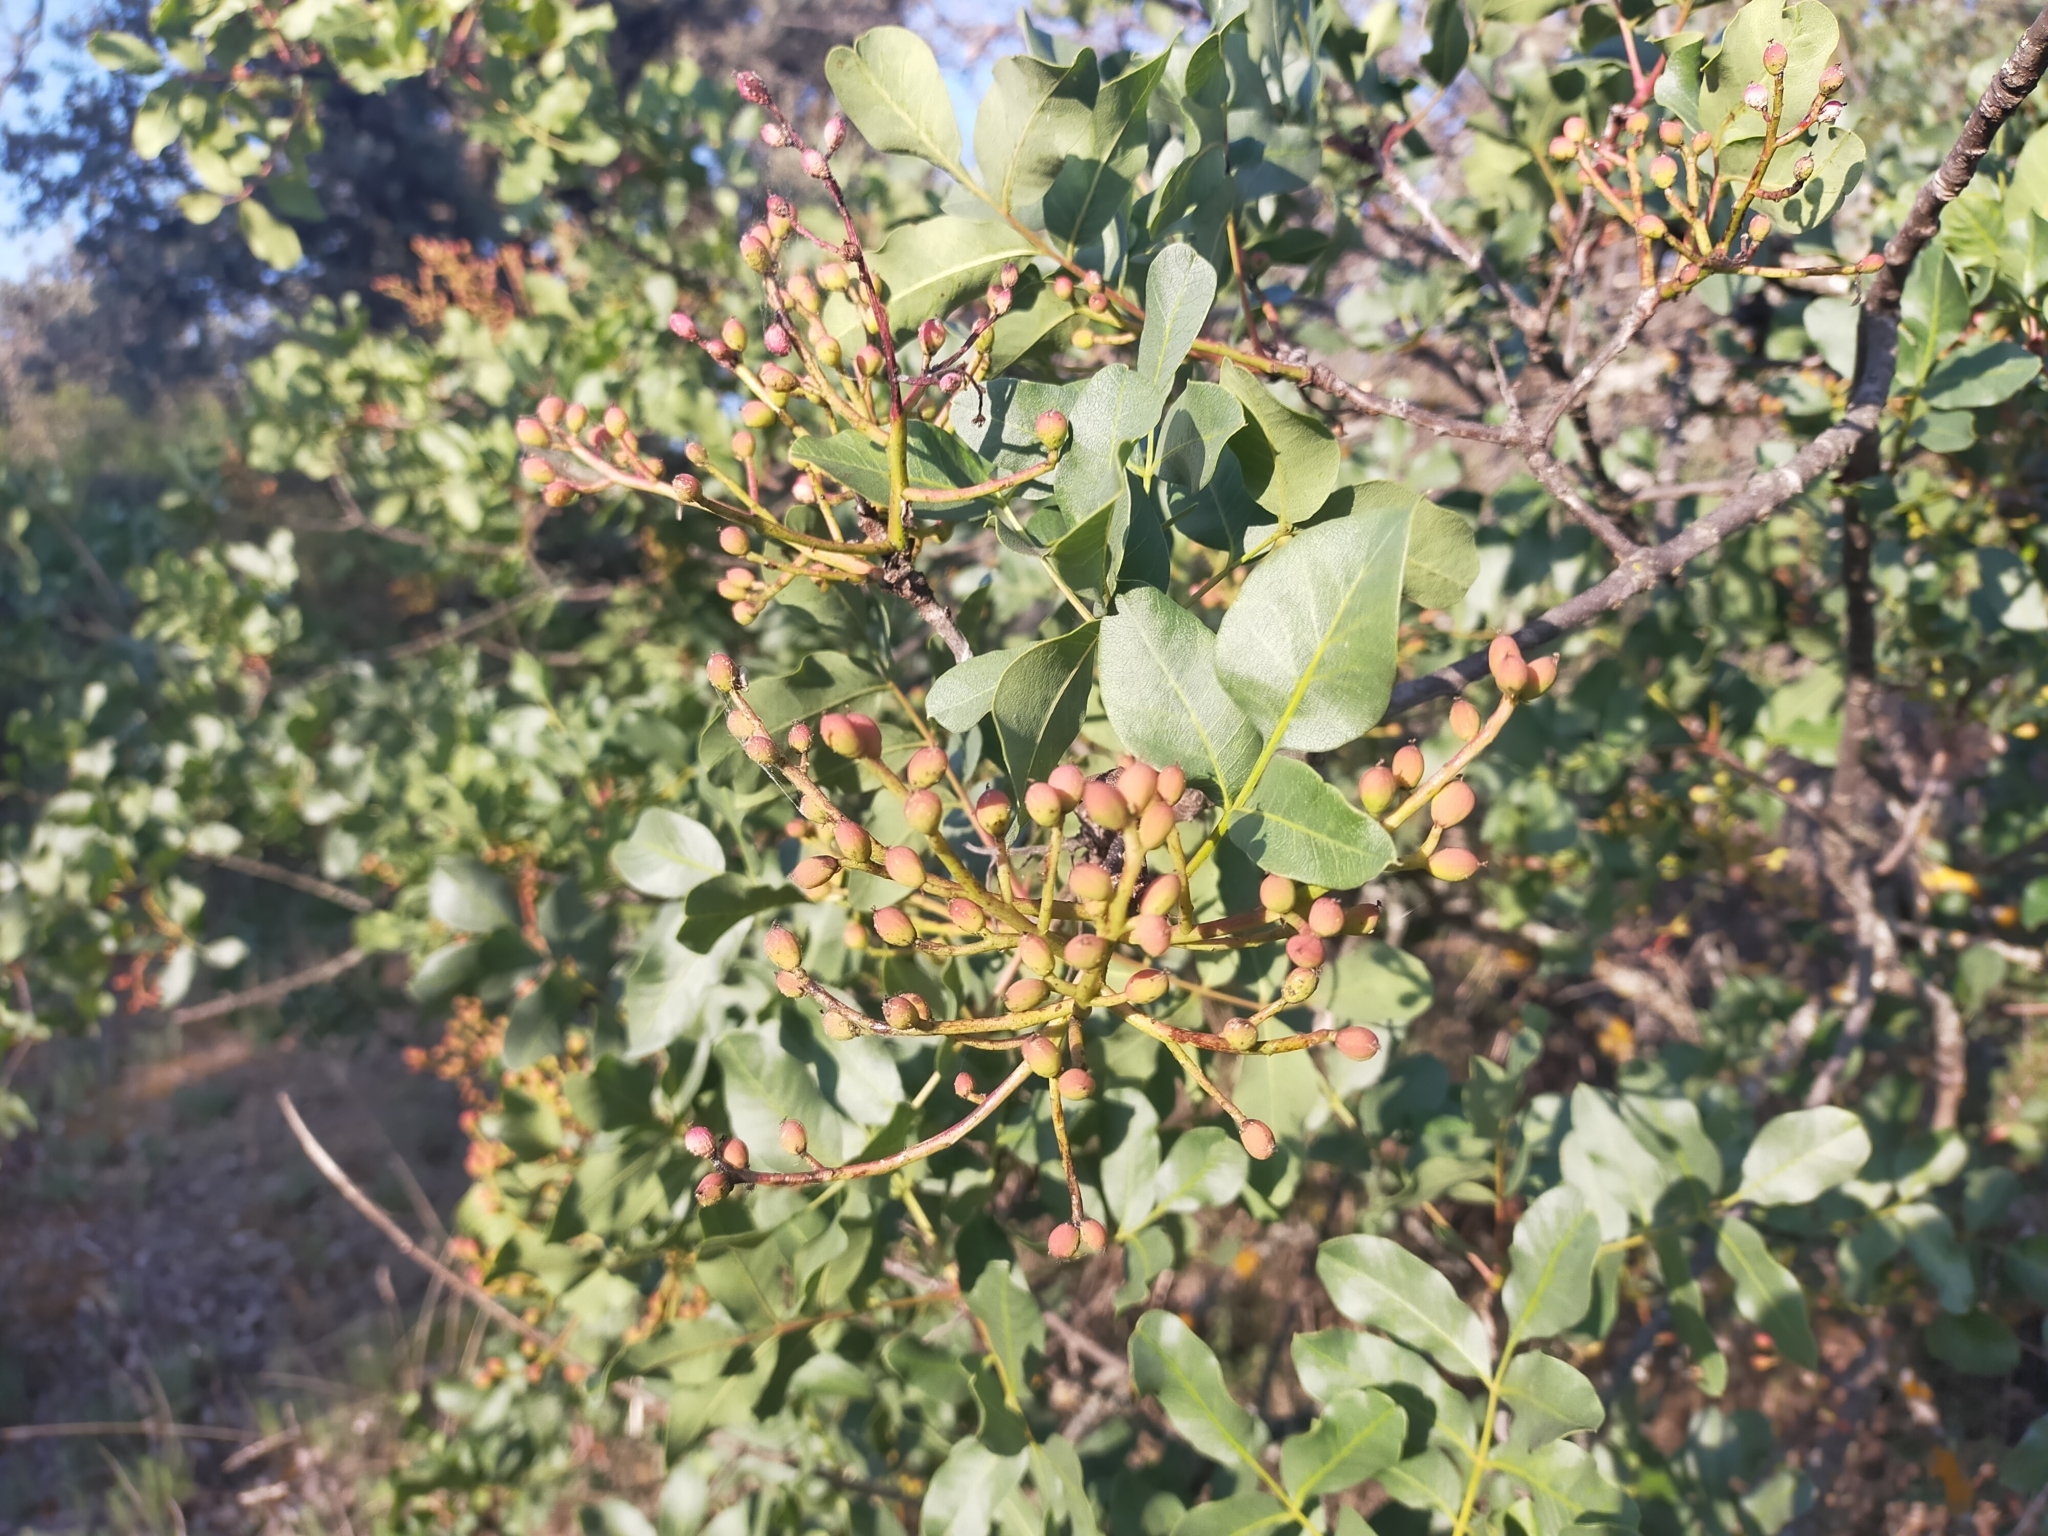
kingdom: Plantae
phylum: Tracheophyta
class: Magnoliopsida
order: Sapindales
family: Anacardiaceae
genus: Pistacia
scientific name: Pistacia terebinthus
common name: Terebinth
